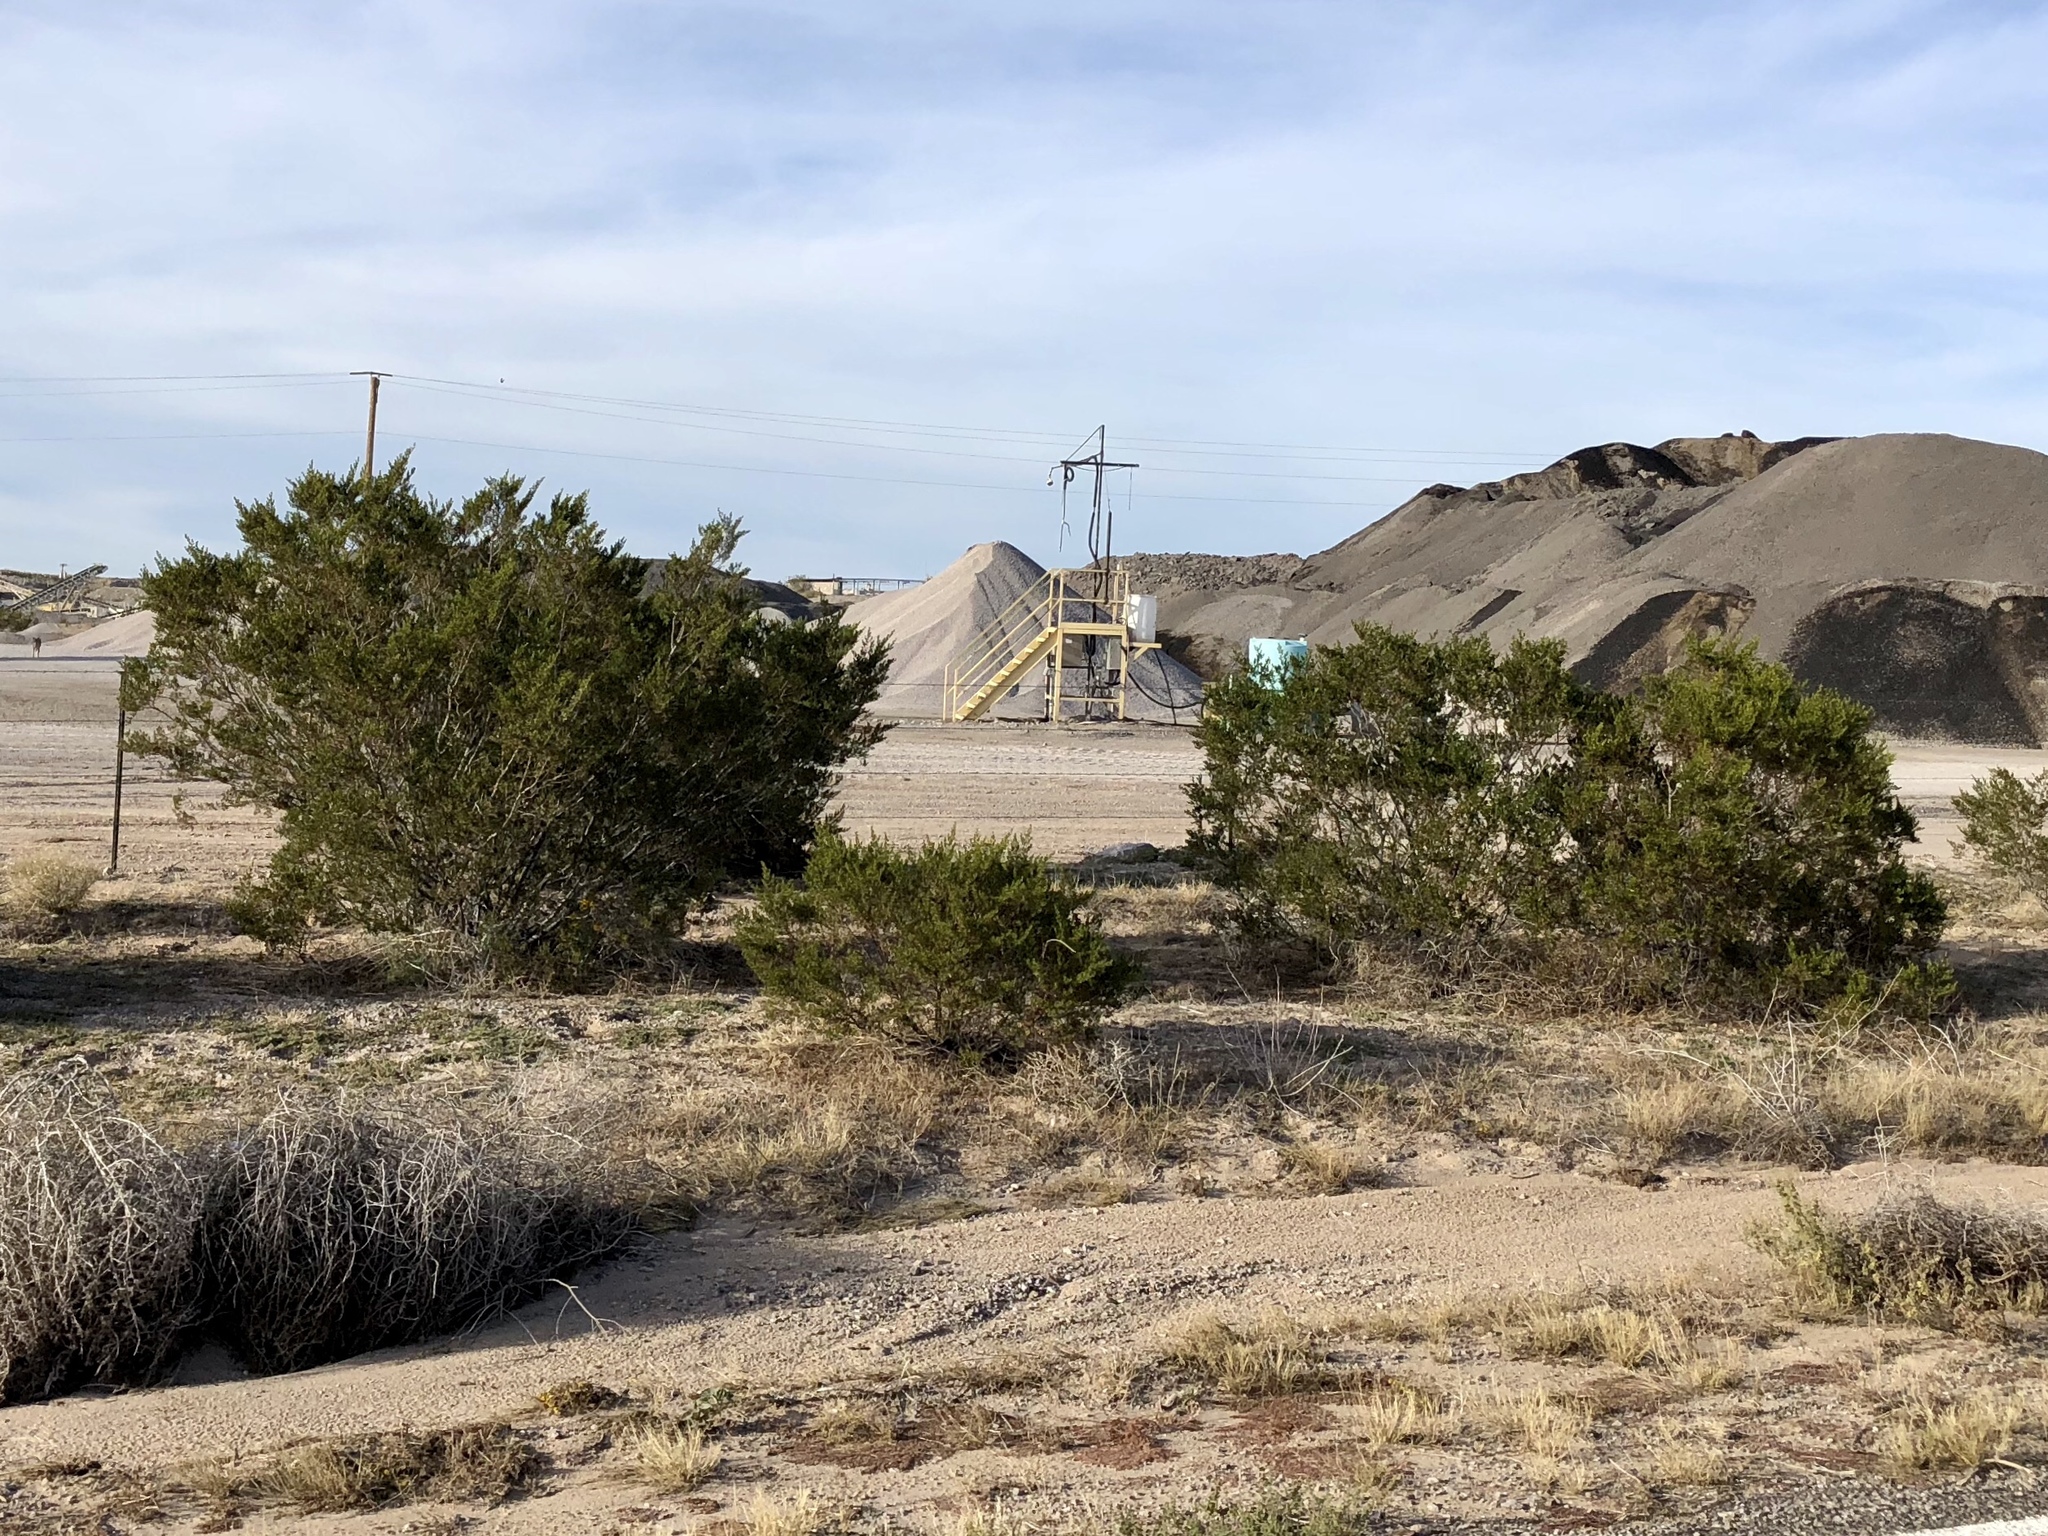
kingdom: Plantae
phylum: Tracheophyta
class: Magnoliopsida
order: Zygophyllales
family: Zygophyllaceae
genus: Larrea
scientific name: Larrea tridentata
